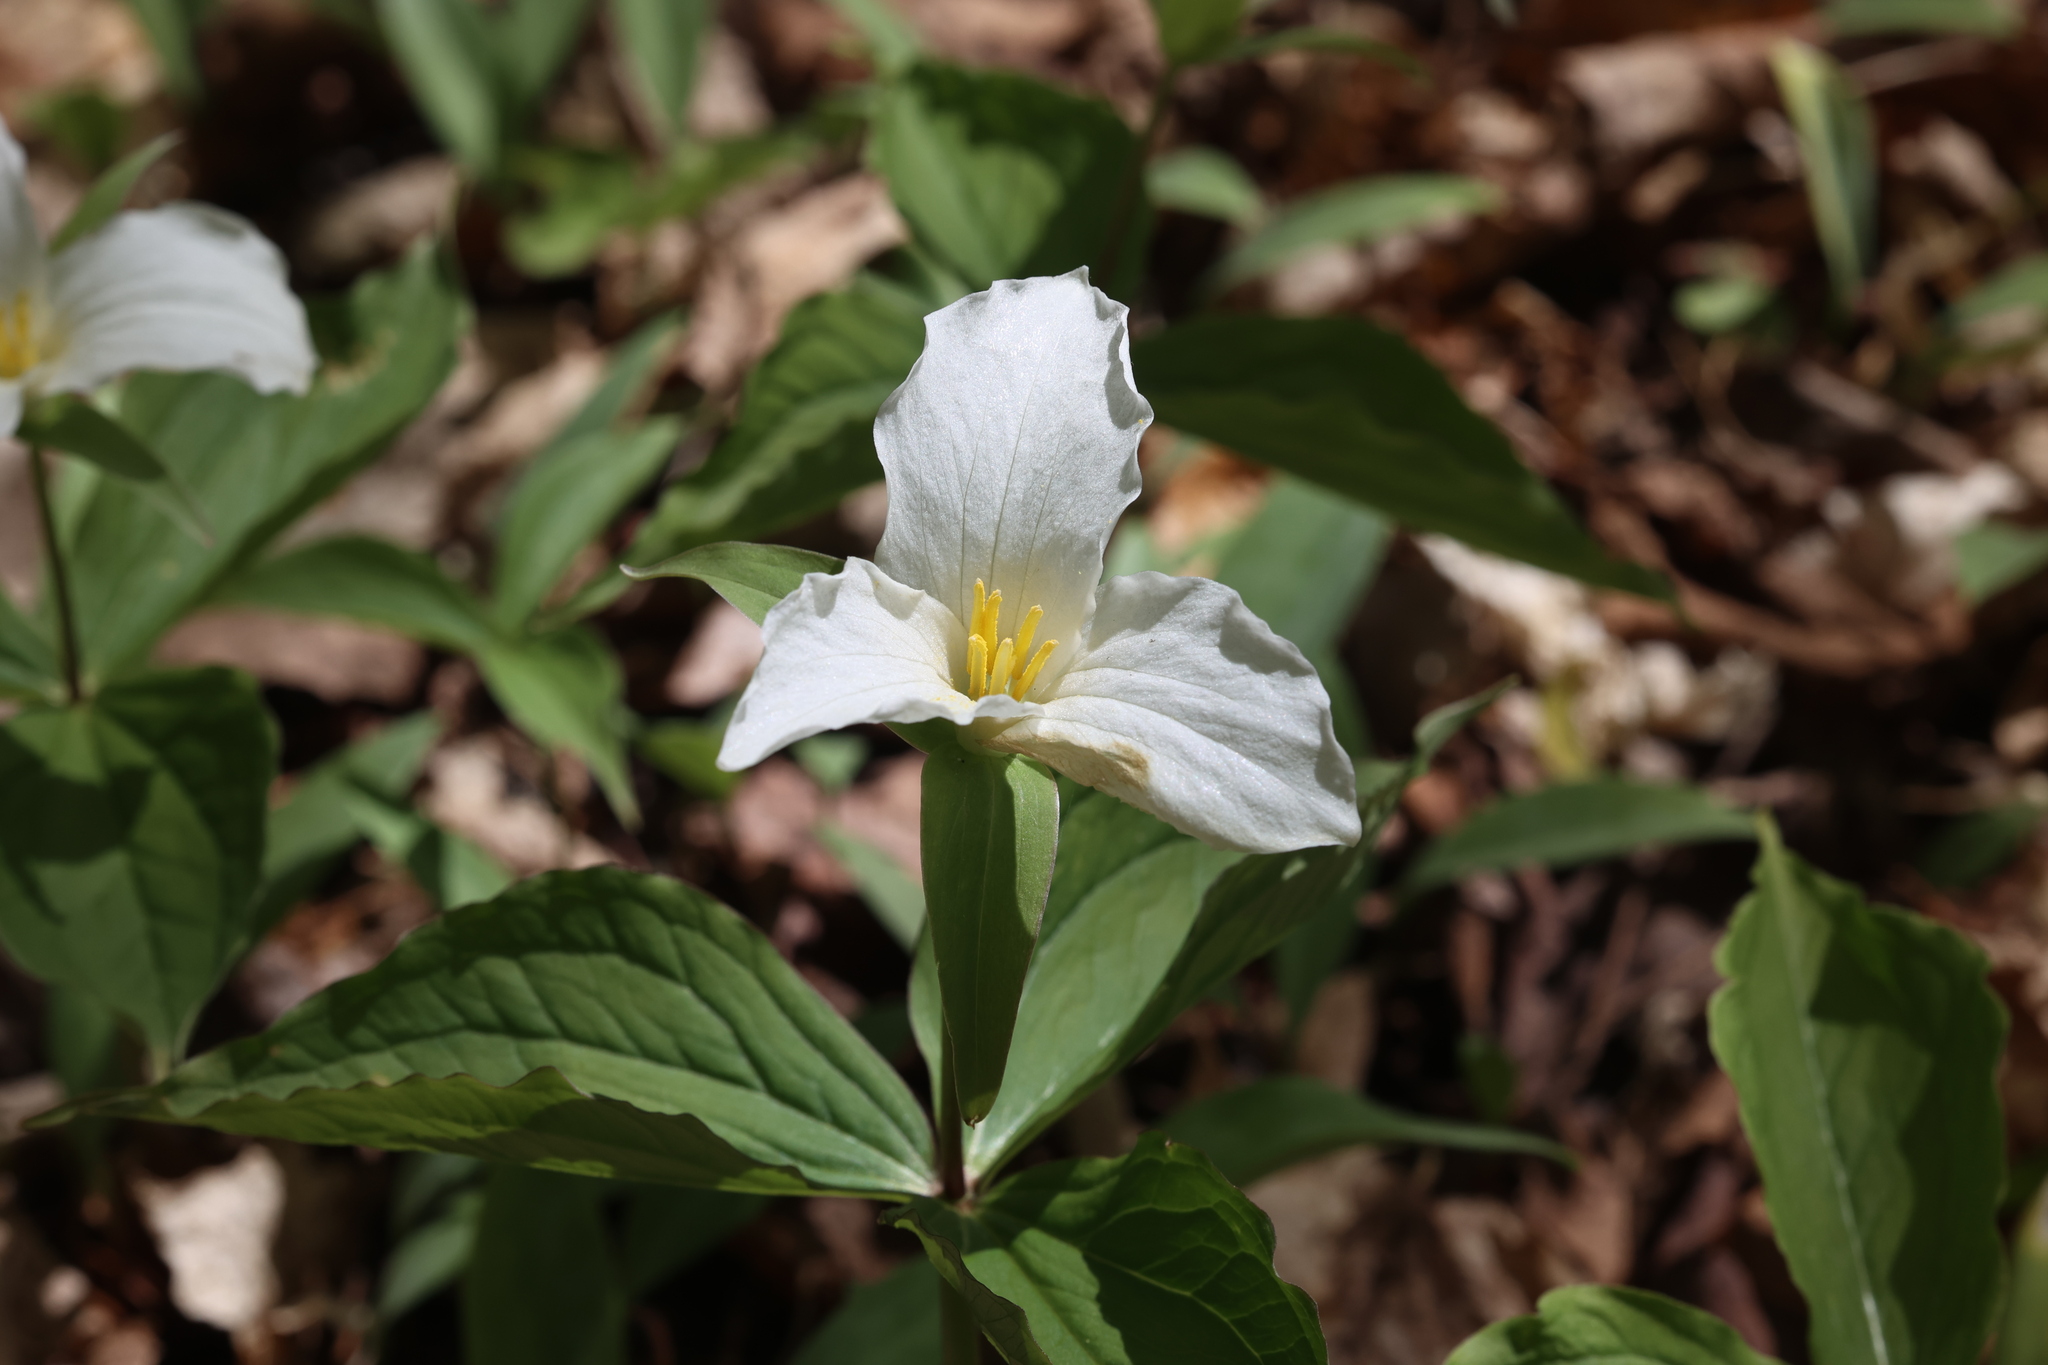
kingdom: Plantae
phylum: Tracheophyta
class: Liliopsida
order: Liliales
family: Melanthiaceae
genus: Trillium
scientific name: Trillium grandiflorum
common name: Great white trillium
